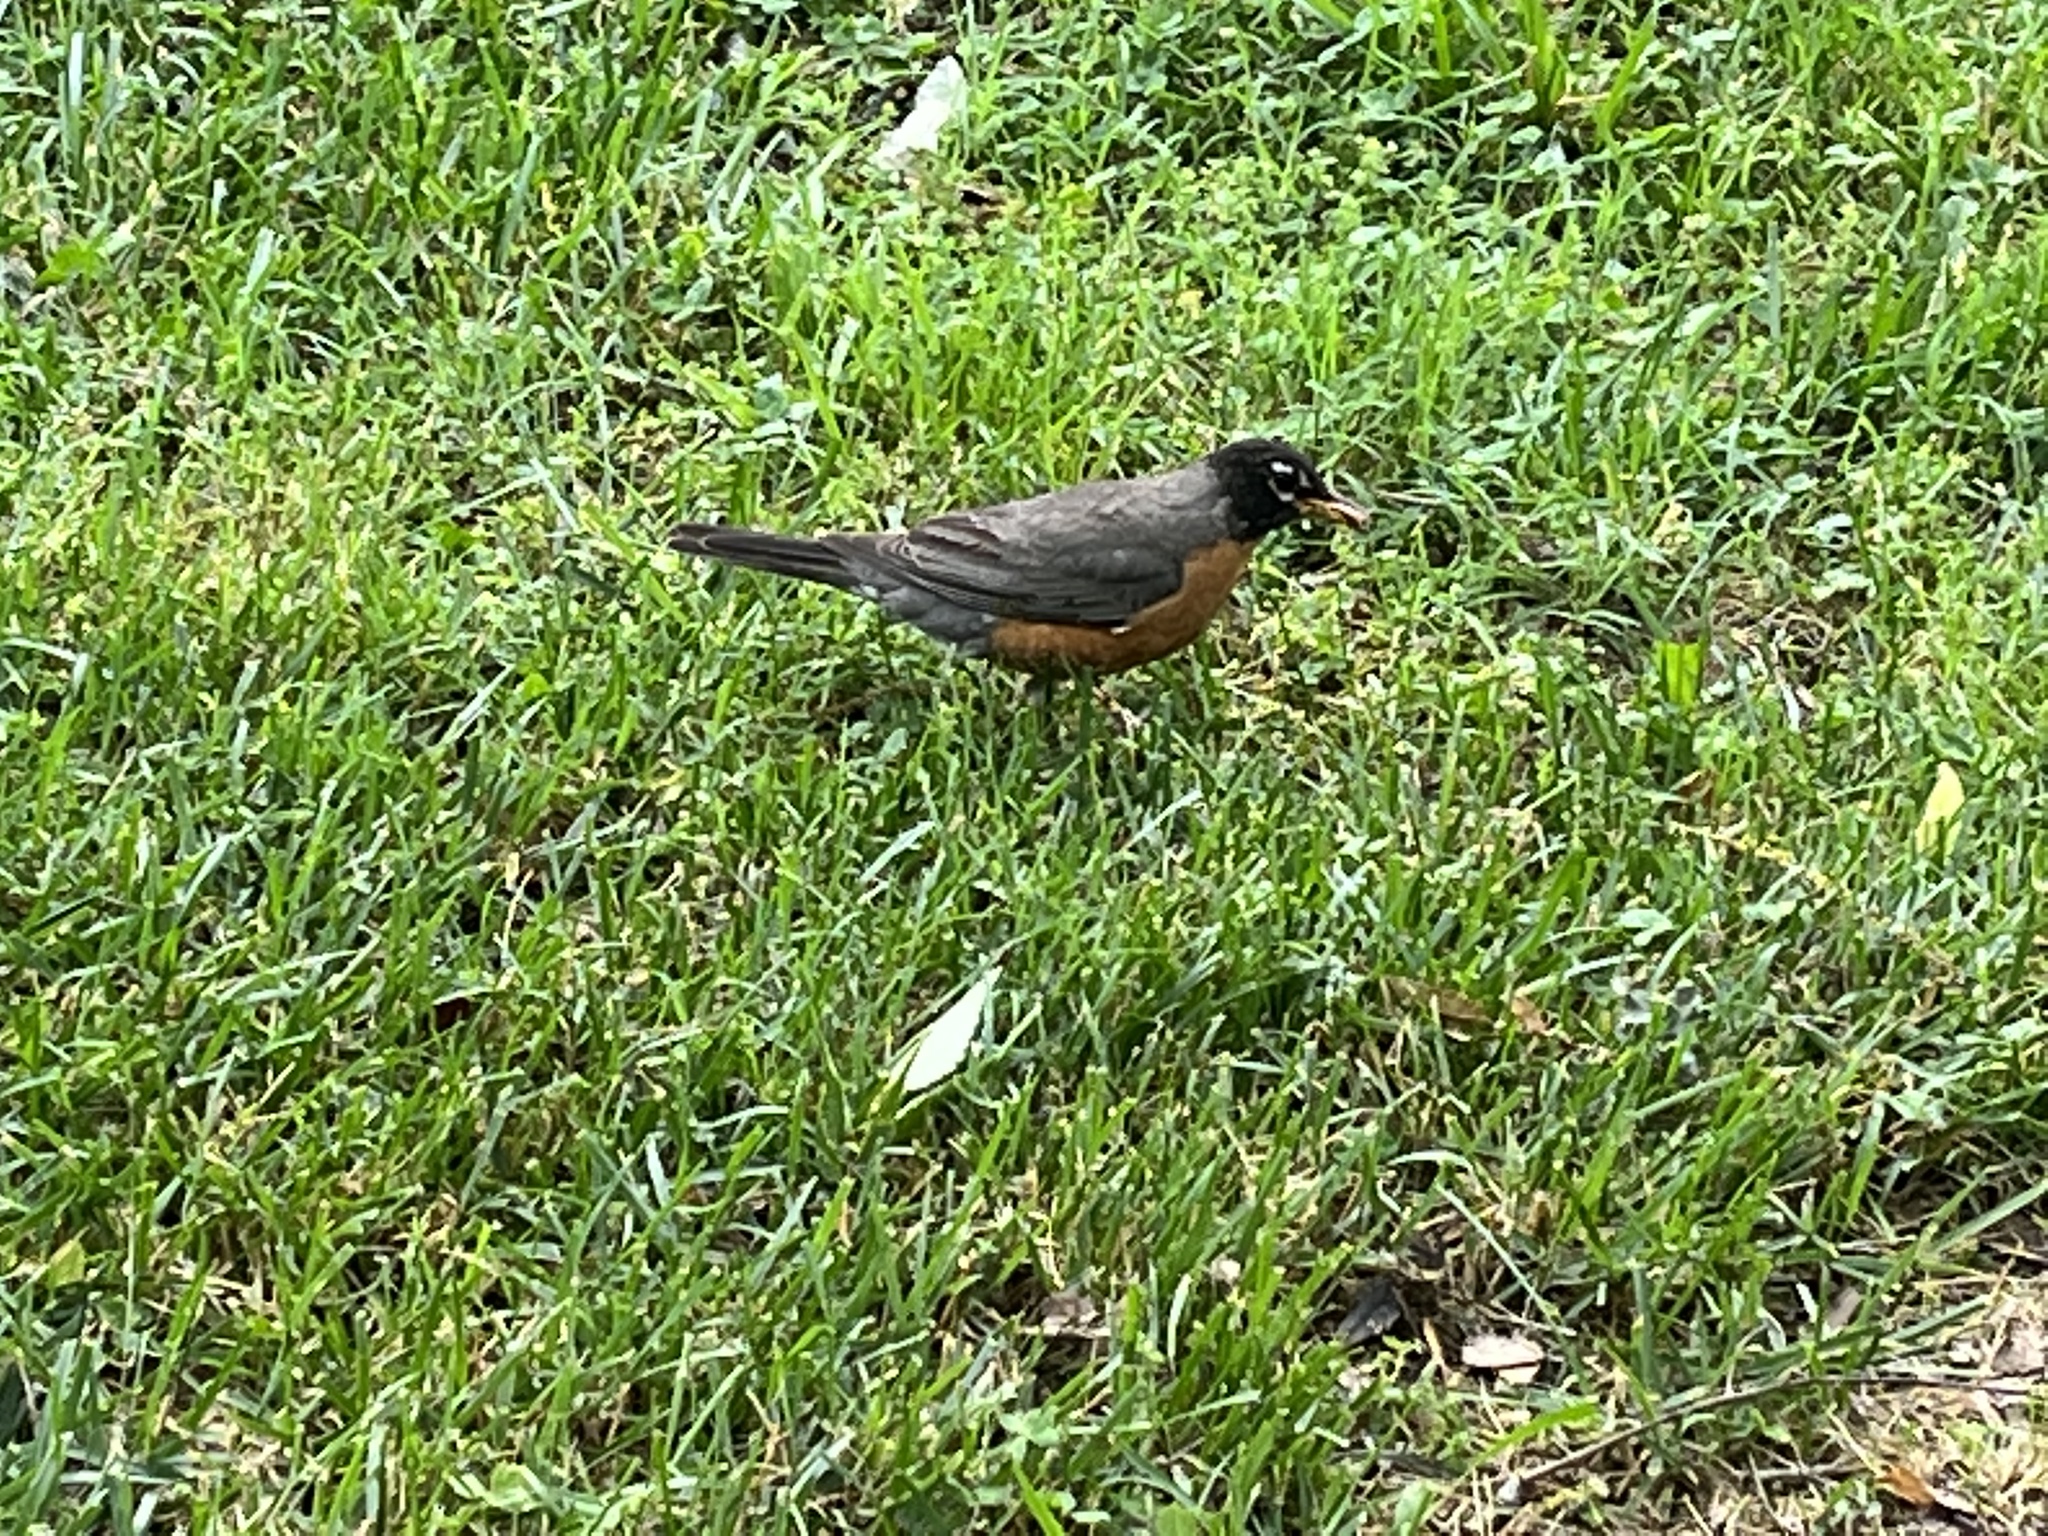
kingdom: Animalia
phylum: Chordata
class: Aves
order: Passeriformes
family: Turdidae
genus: Turdus
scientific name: Turdus migratorius
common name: American robin
